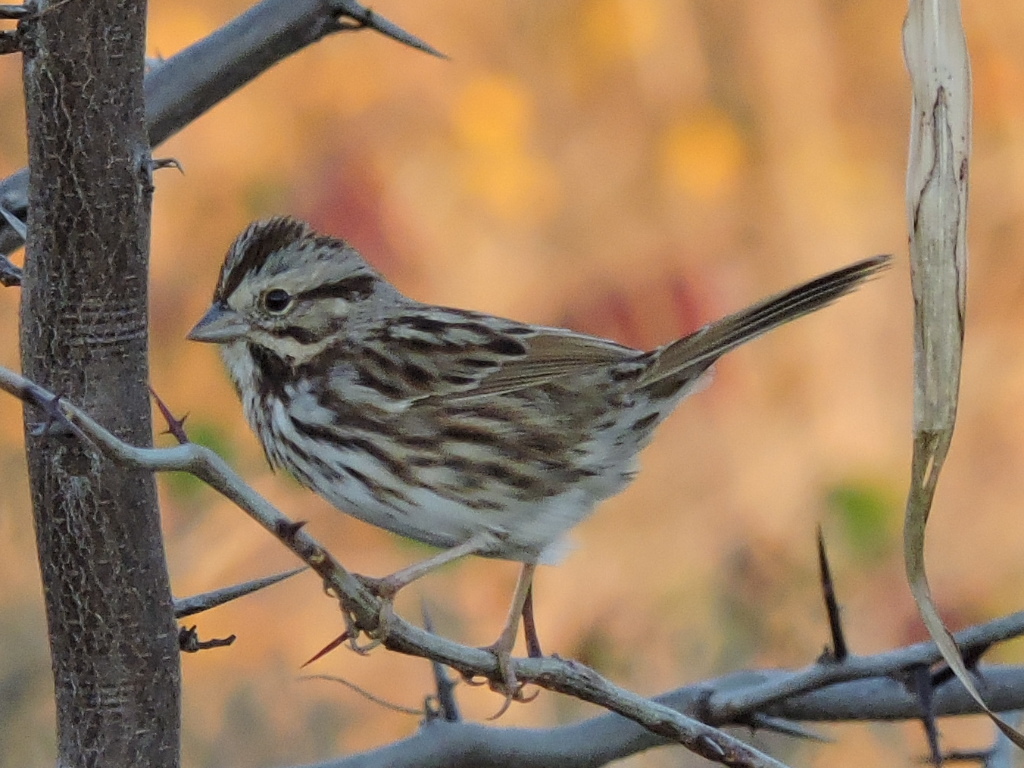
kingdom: Animalia
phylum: Chordata
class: Aves
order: Passeriformes
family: Passerellidae
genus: Melospiza
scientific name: Melospiza melodia
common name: Song sparrow
